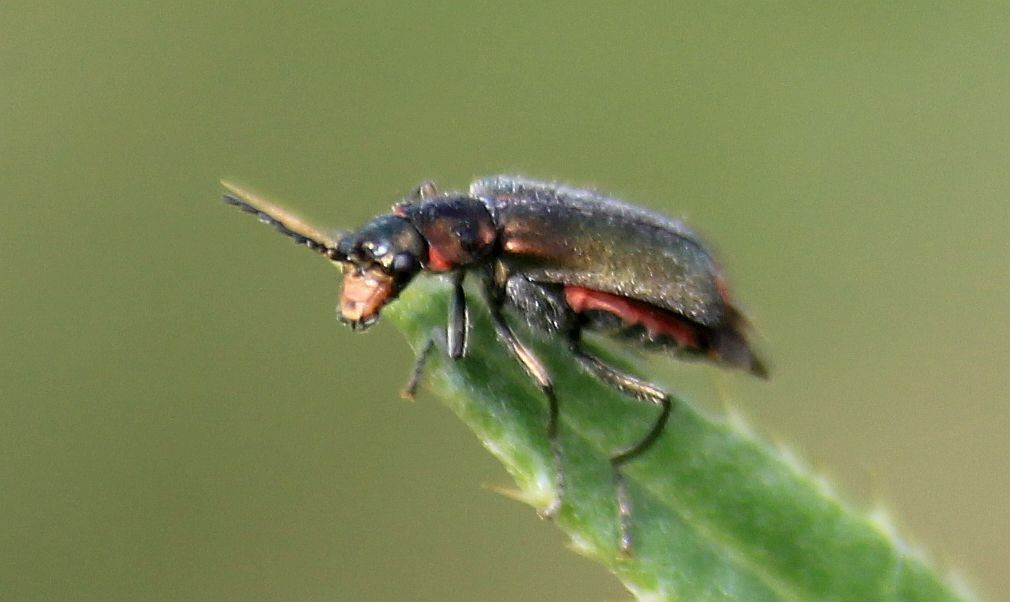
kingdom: Animalia
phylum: Arthropoda
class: Insecta
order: Coleoptera
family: Melyridae
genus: Malachius
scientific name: Malachius bipustulatus
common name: Malachite beetle
